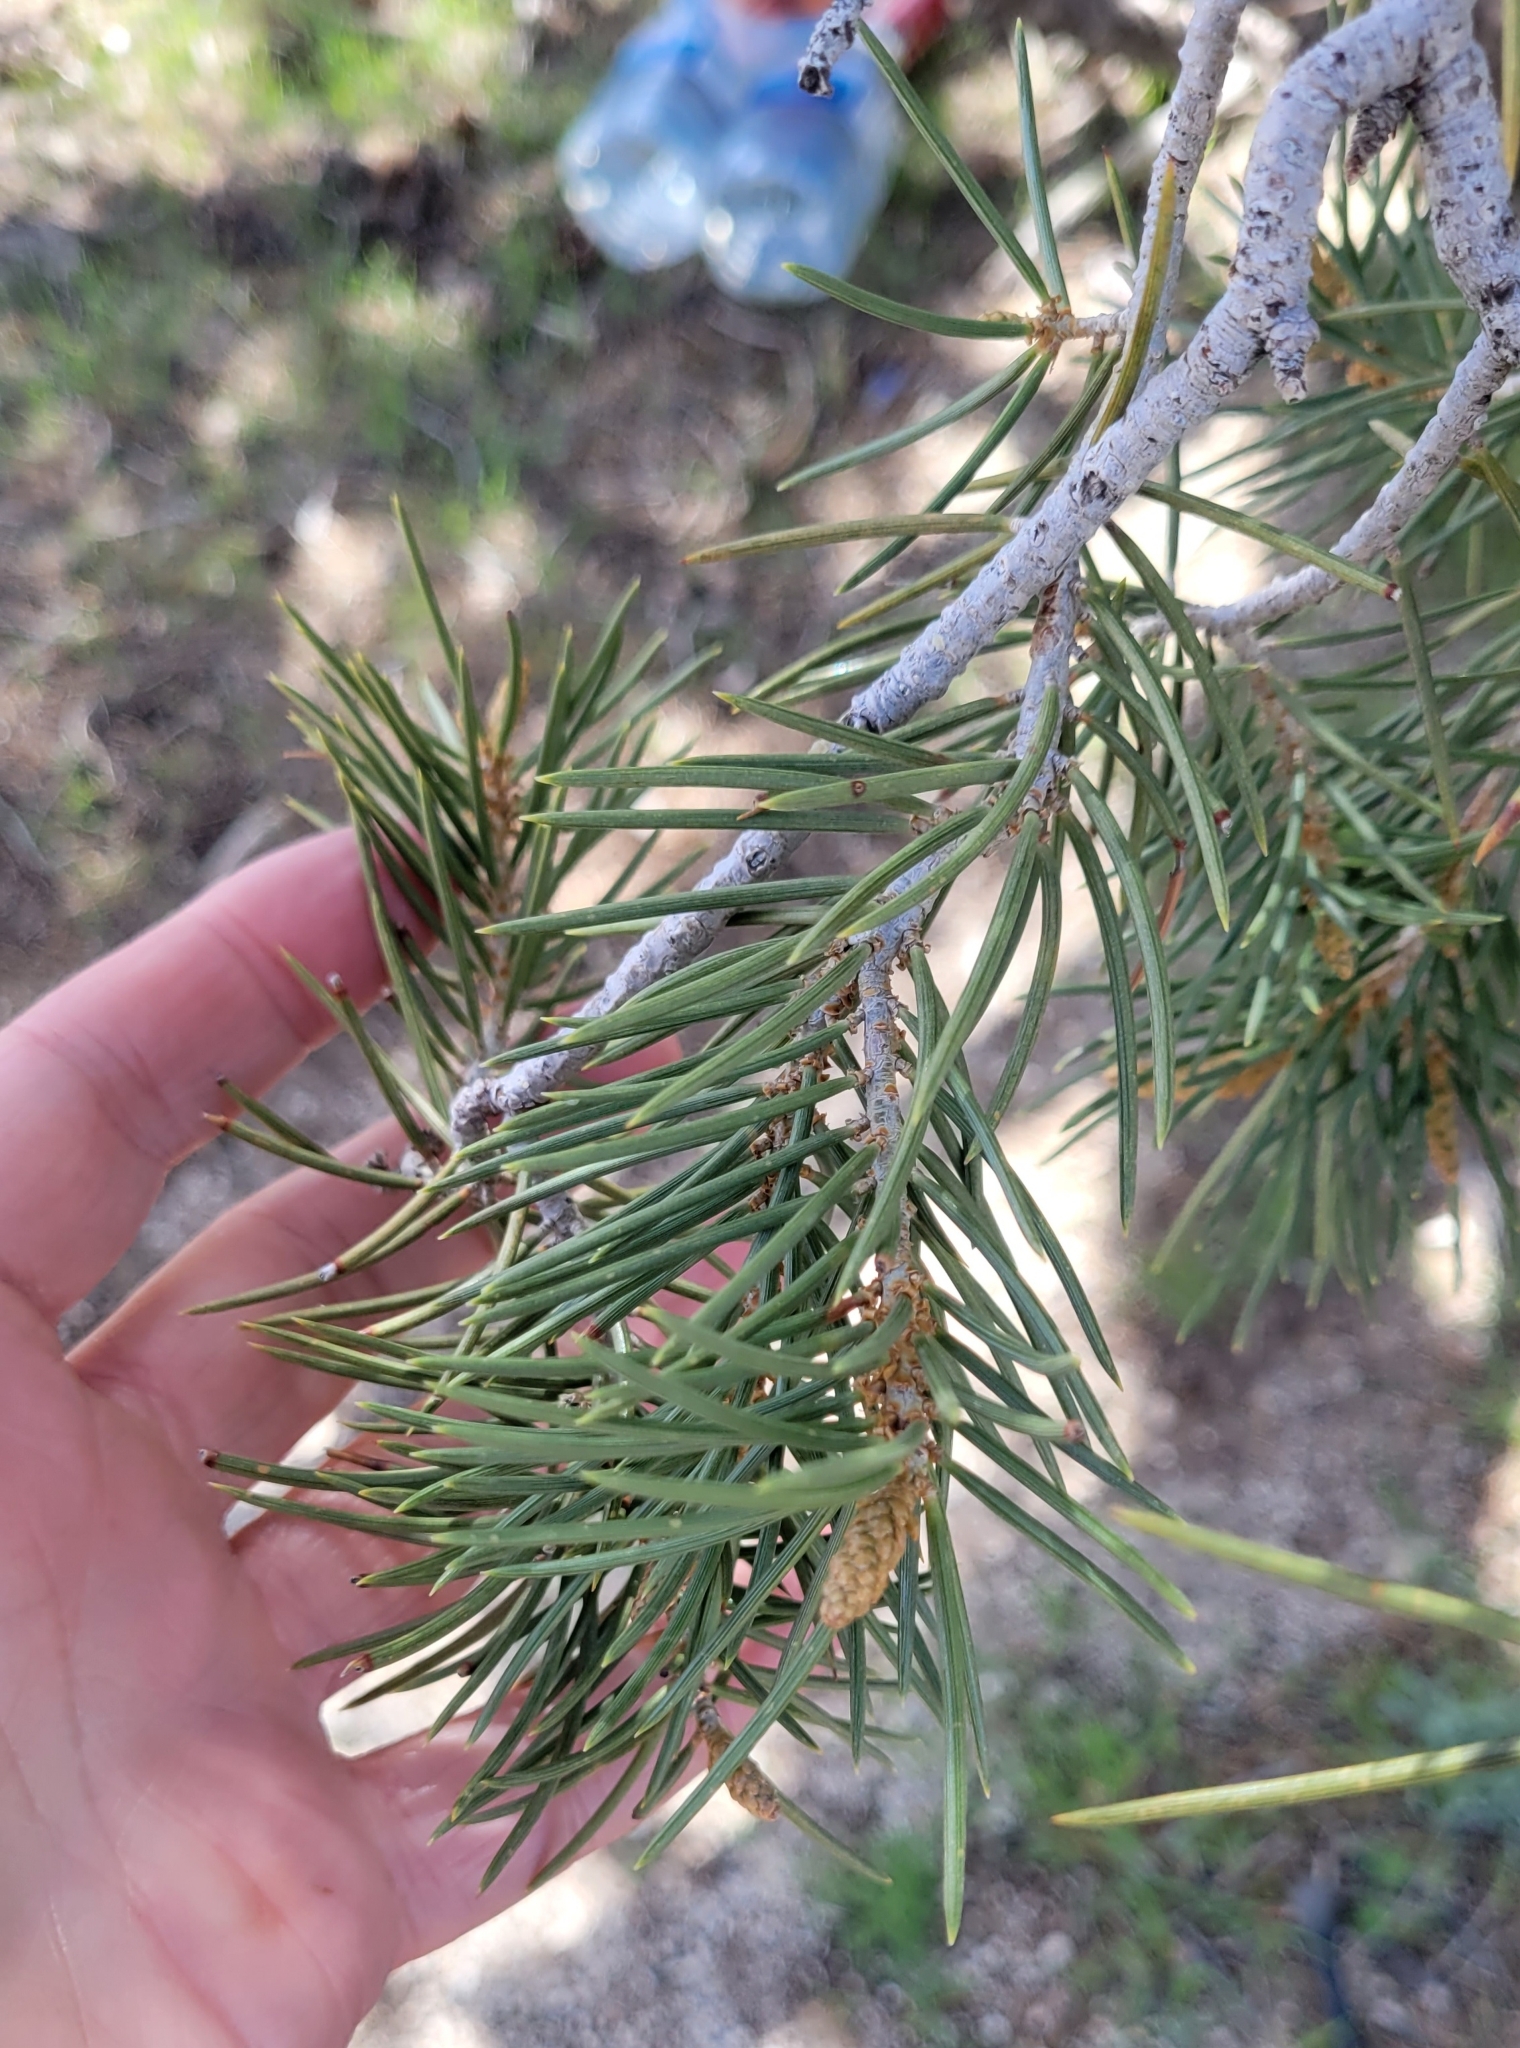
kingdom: Plantae
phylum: Tracheophyta
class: Pinopsida
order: Pinales
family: Pinaceae
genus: Pinus
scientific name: Pinus monophylla
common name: One-leaved nut pine
